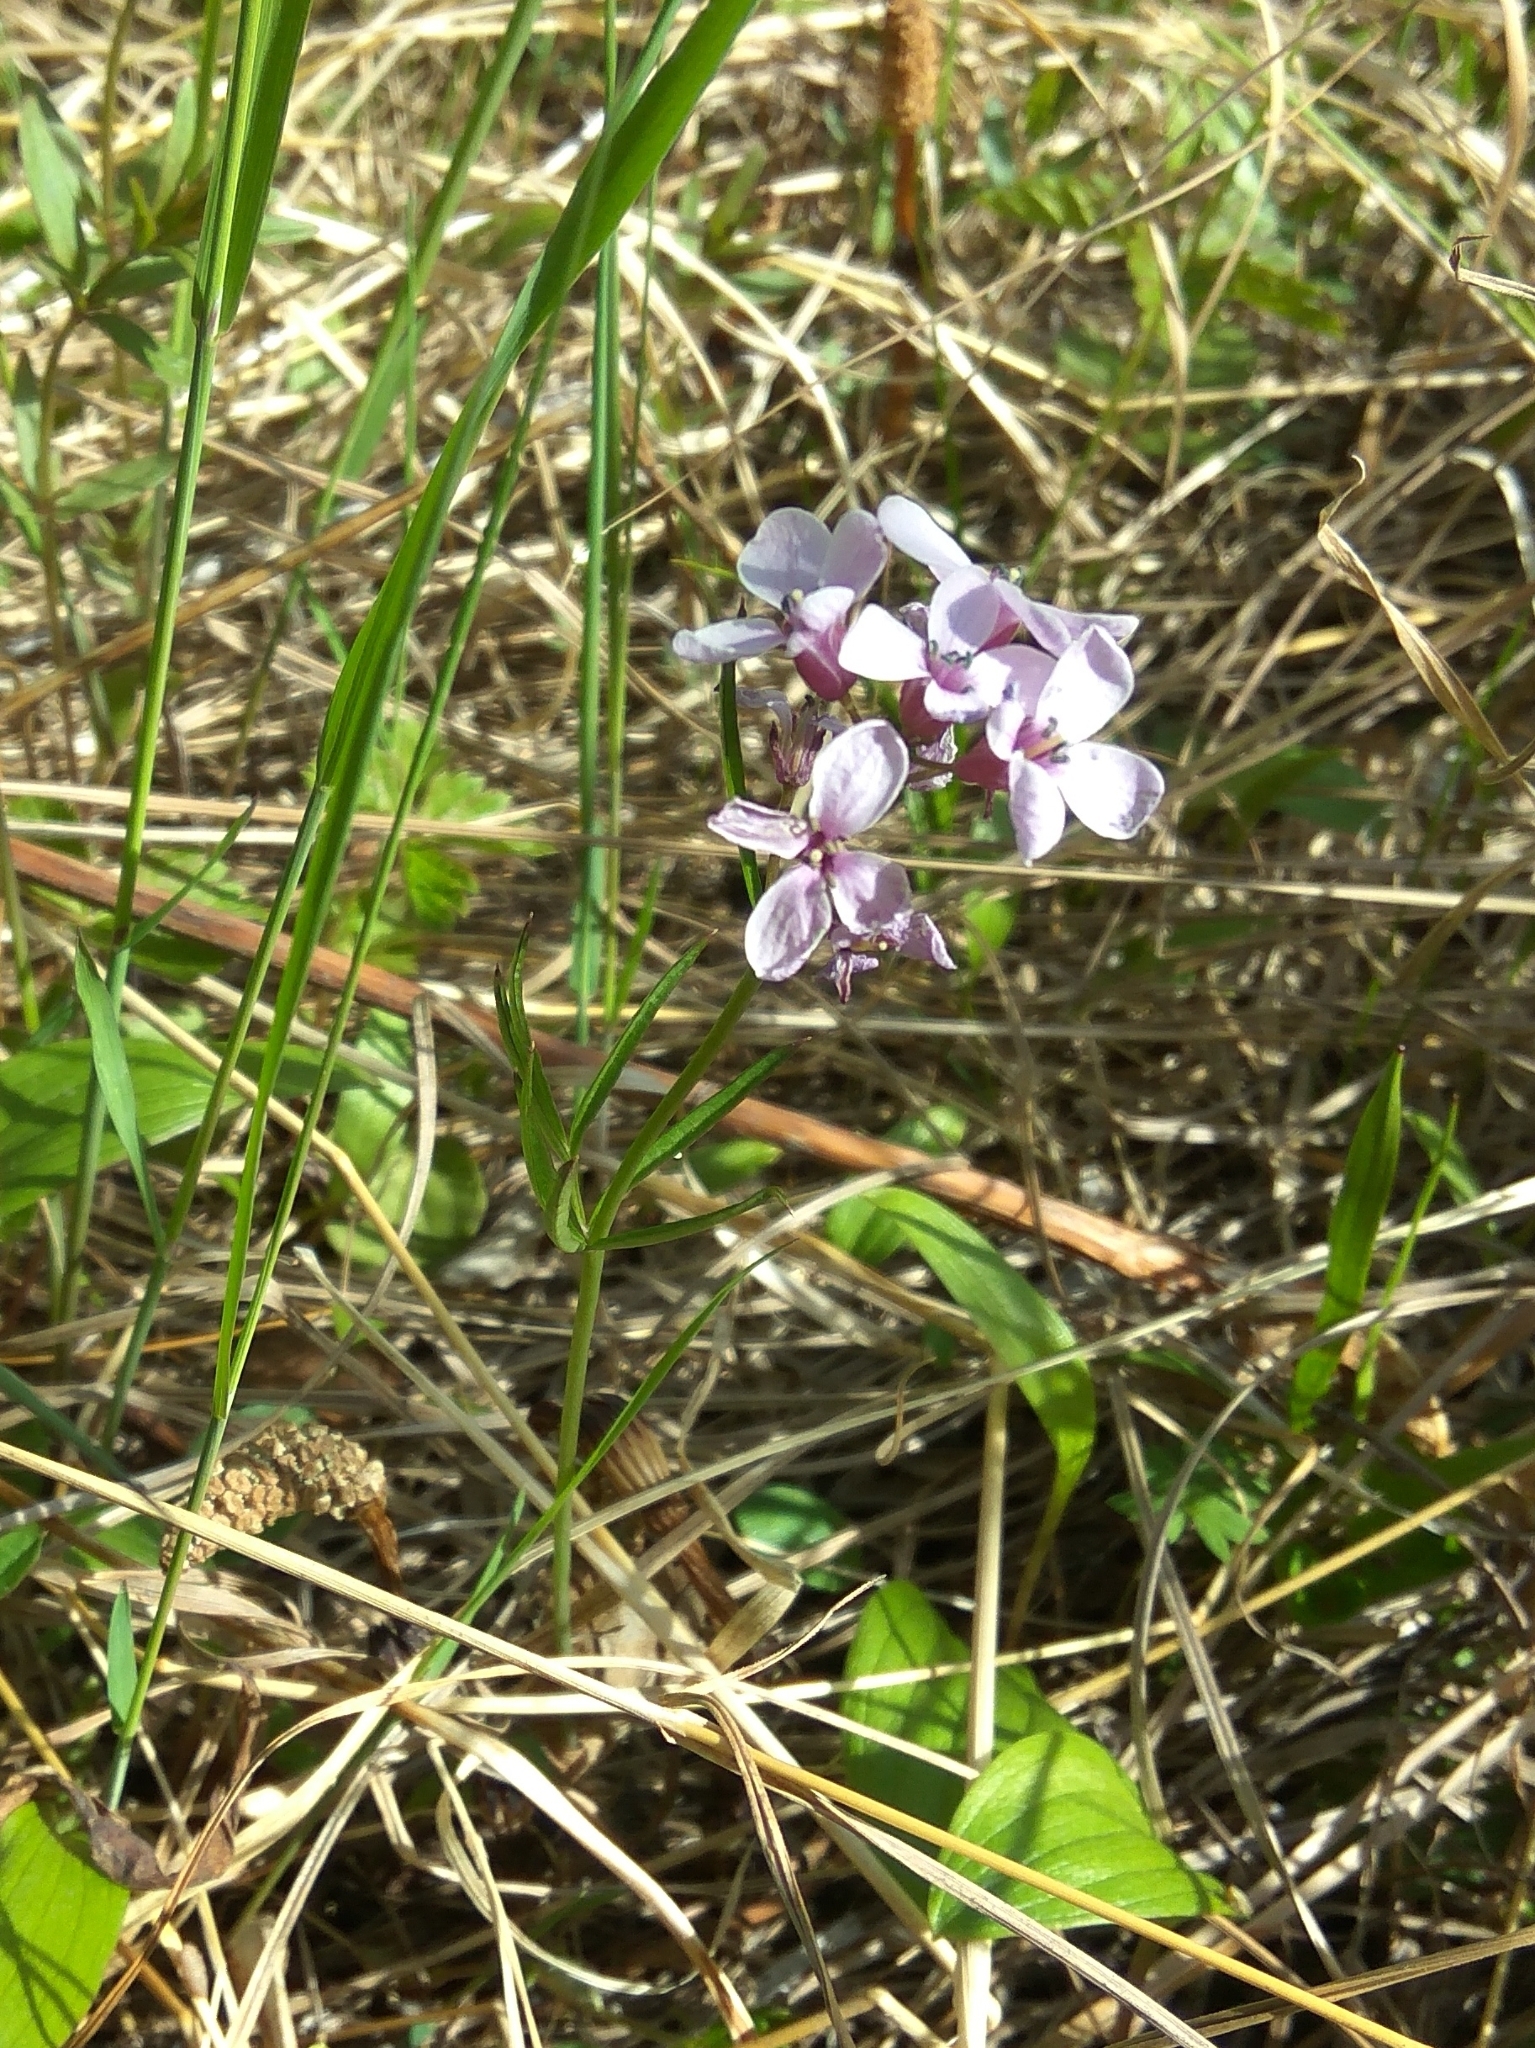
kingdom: Plantae
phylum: Tracheophyta
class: Magnoliopsida
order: Brassicales
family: Brassicaceae
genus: Cardamine
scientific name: Cardamine pratensis
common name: Cuckoo flower
